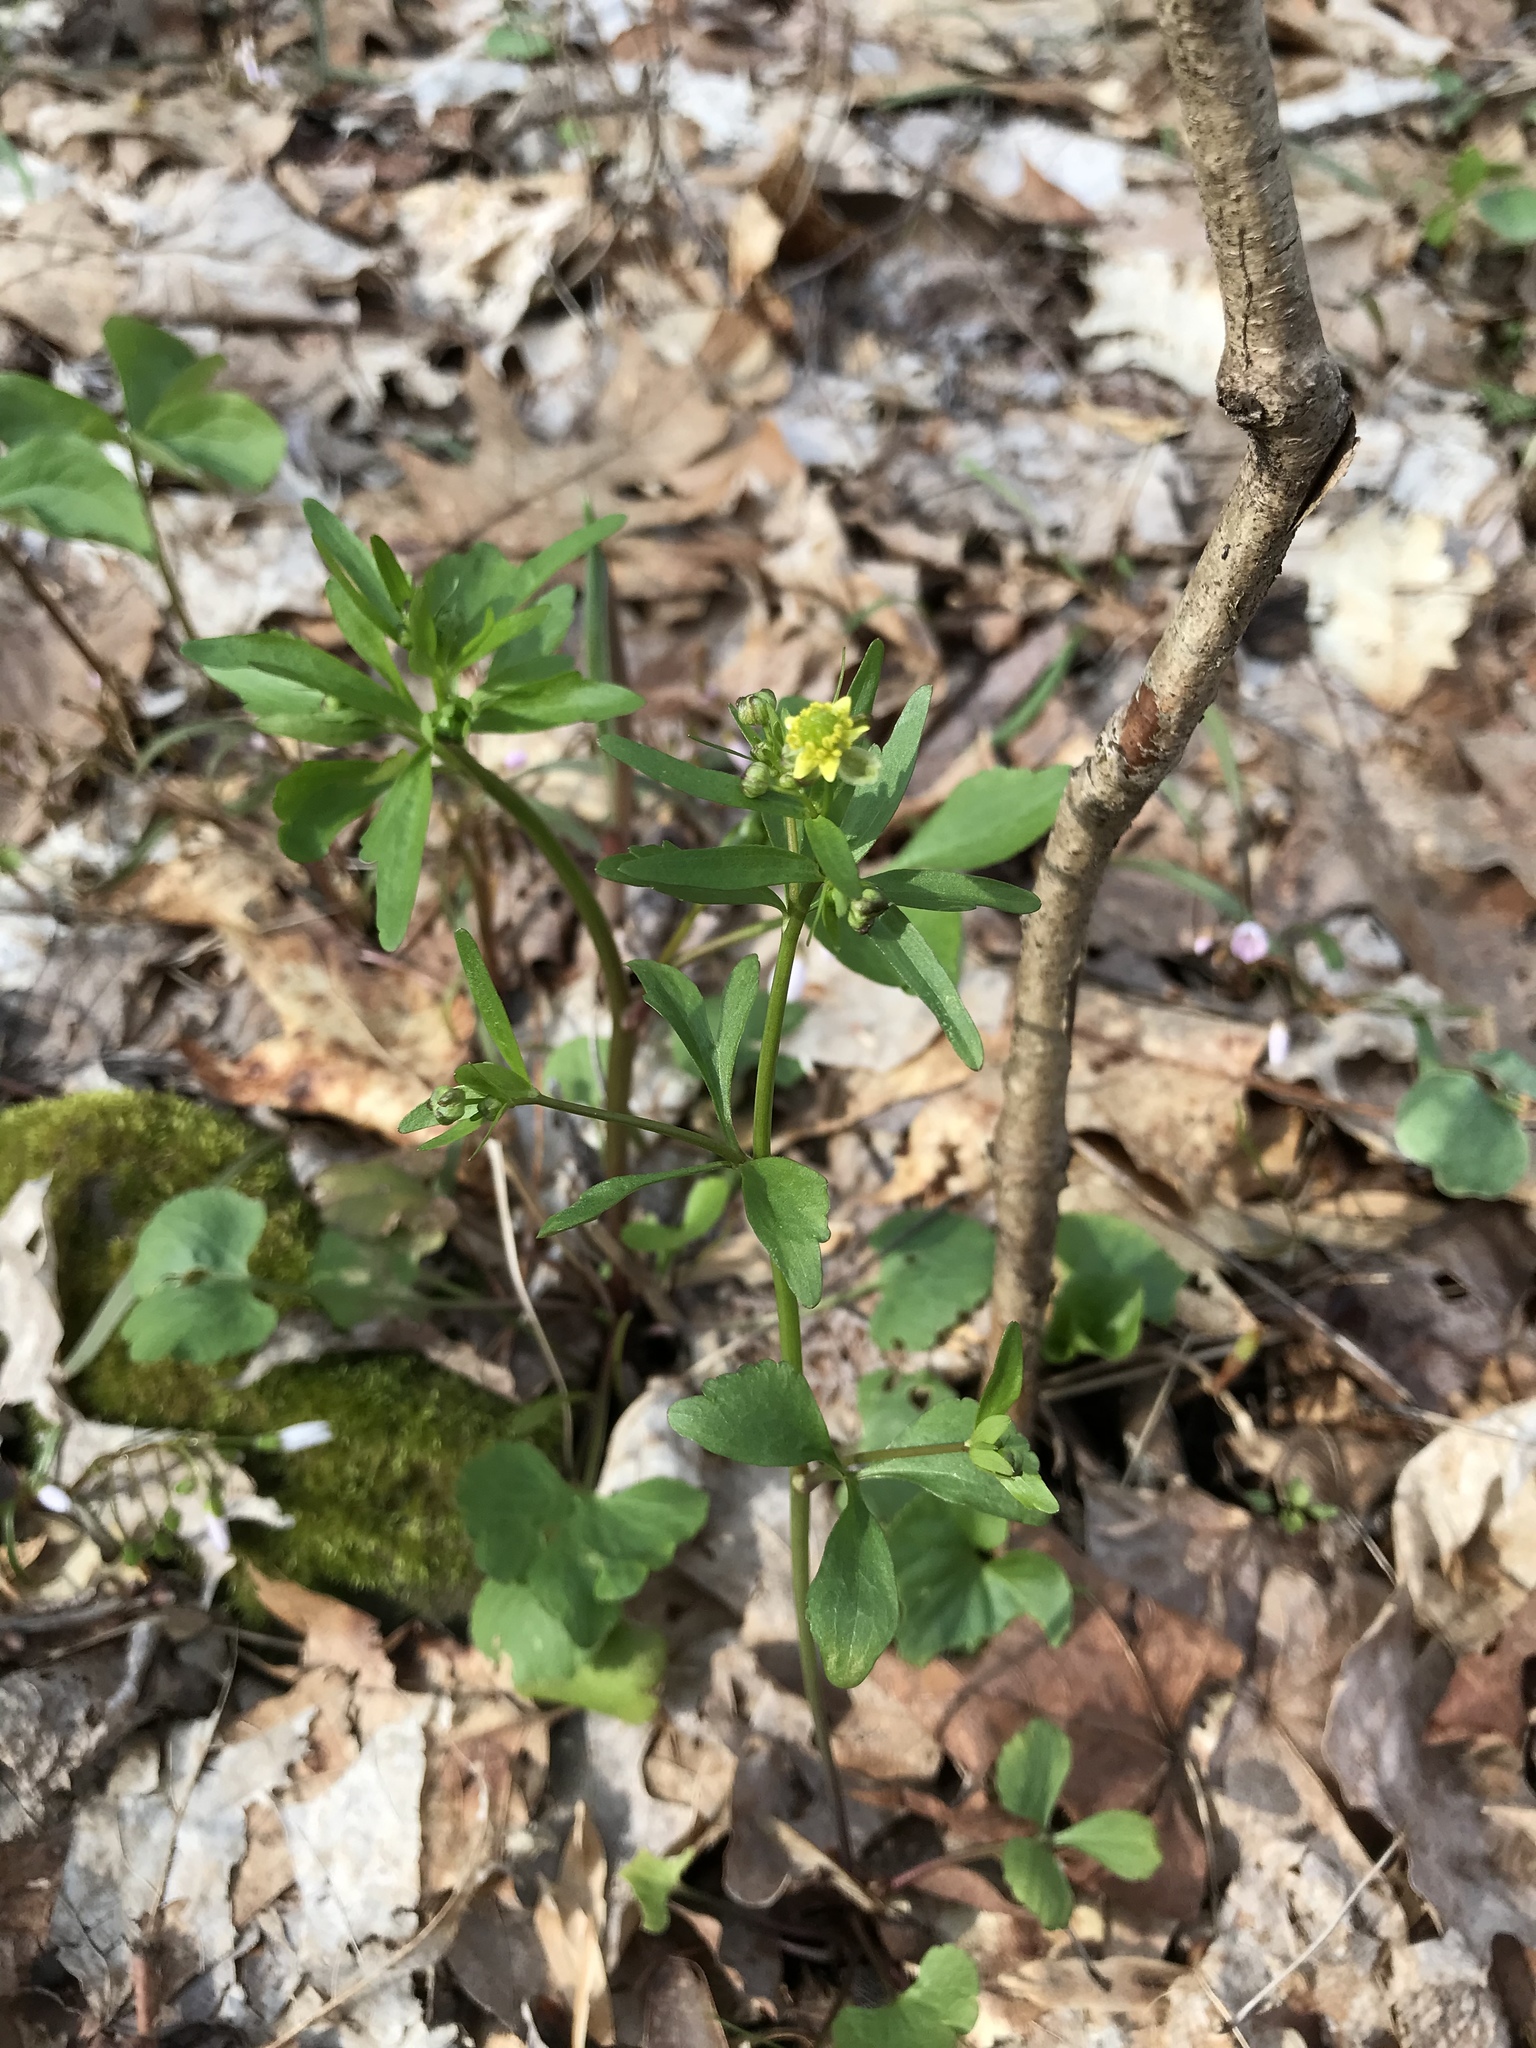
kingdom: Plantae
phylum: Tracheophyta
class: Magnoliopsida
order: Ranunculales
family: Ranunculaceae
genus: Ranunculus
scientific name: Ranunculus abortivus
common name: Early wood buttercup
